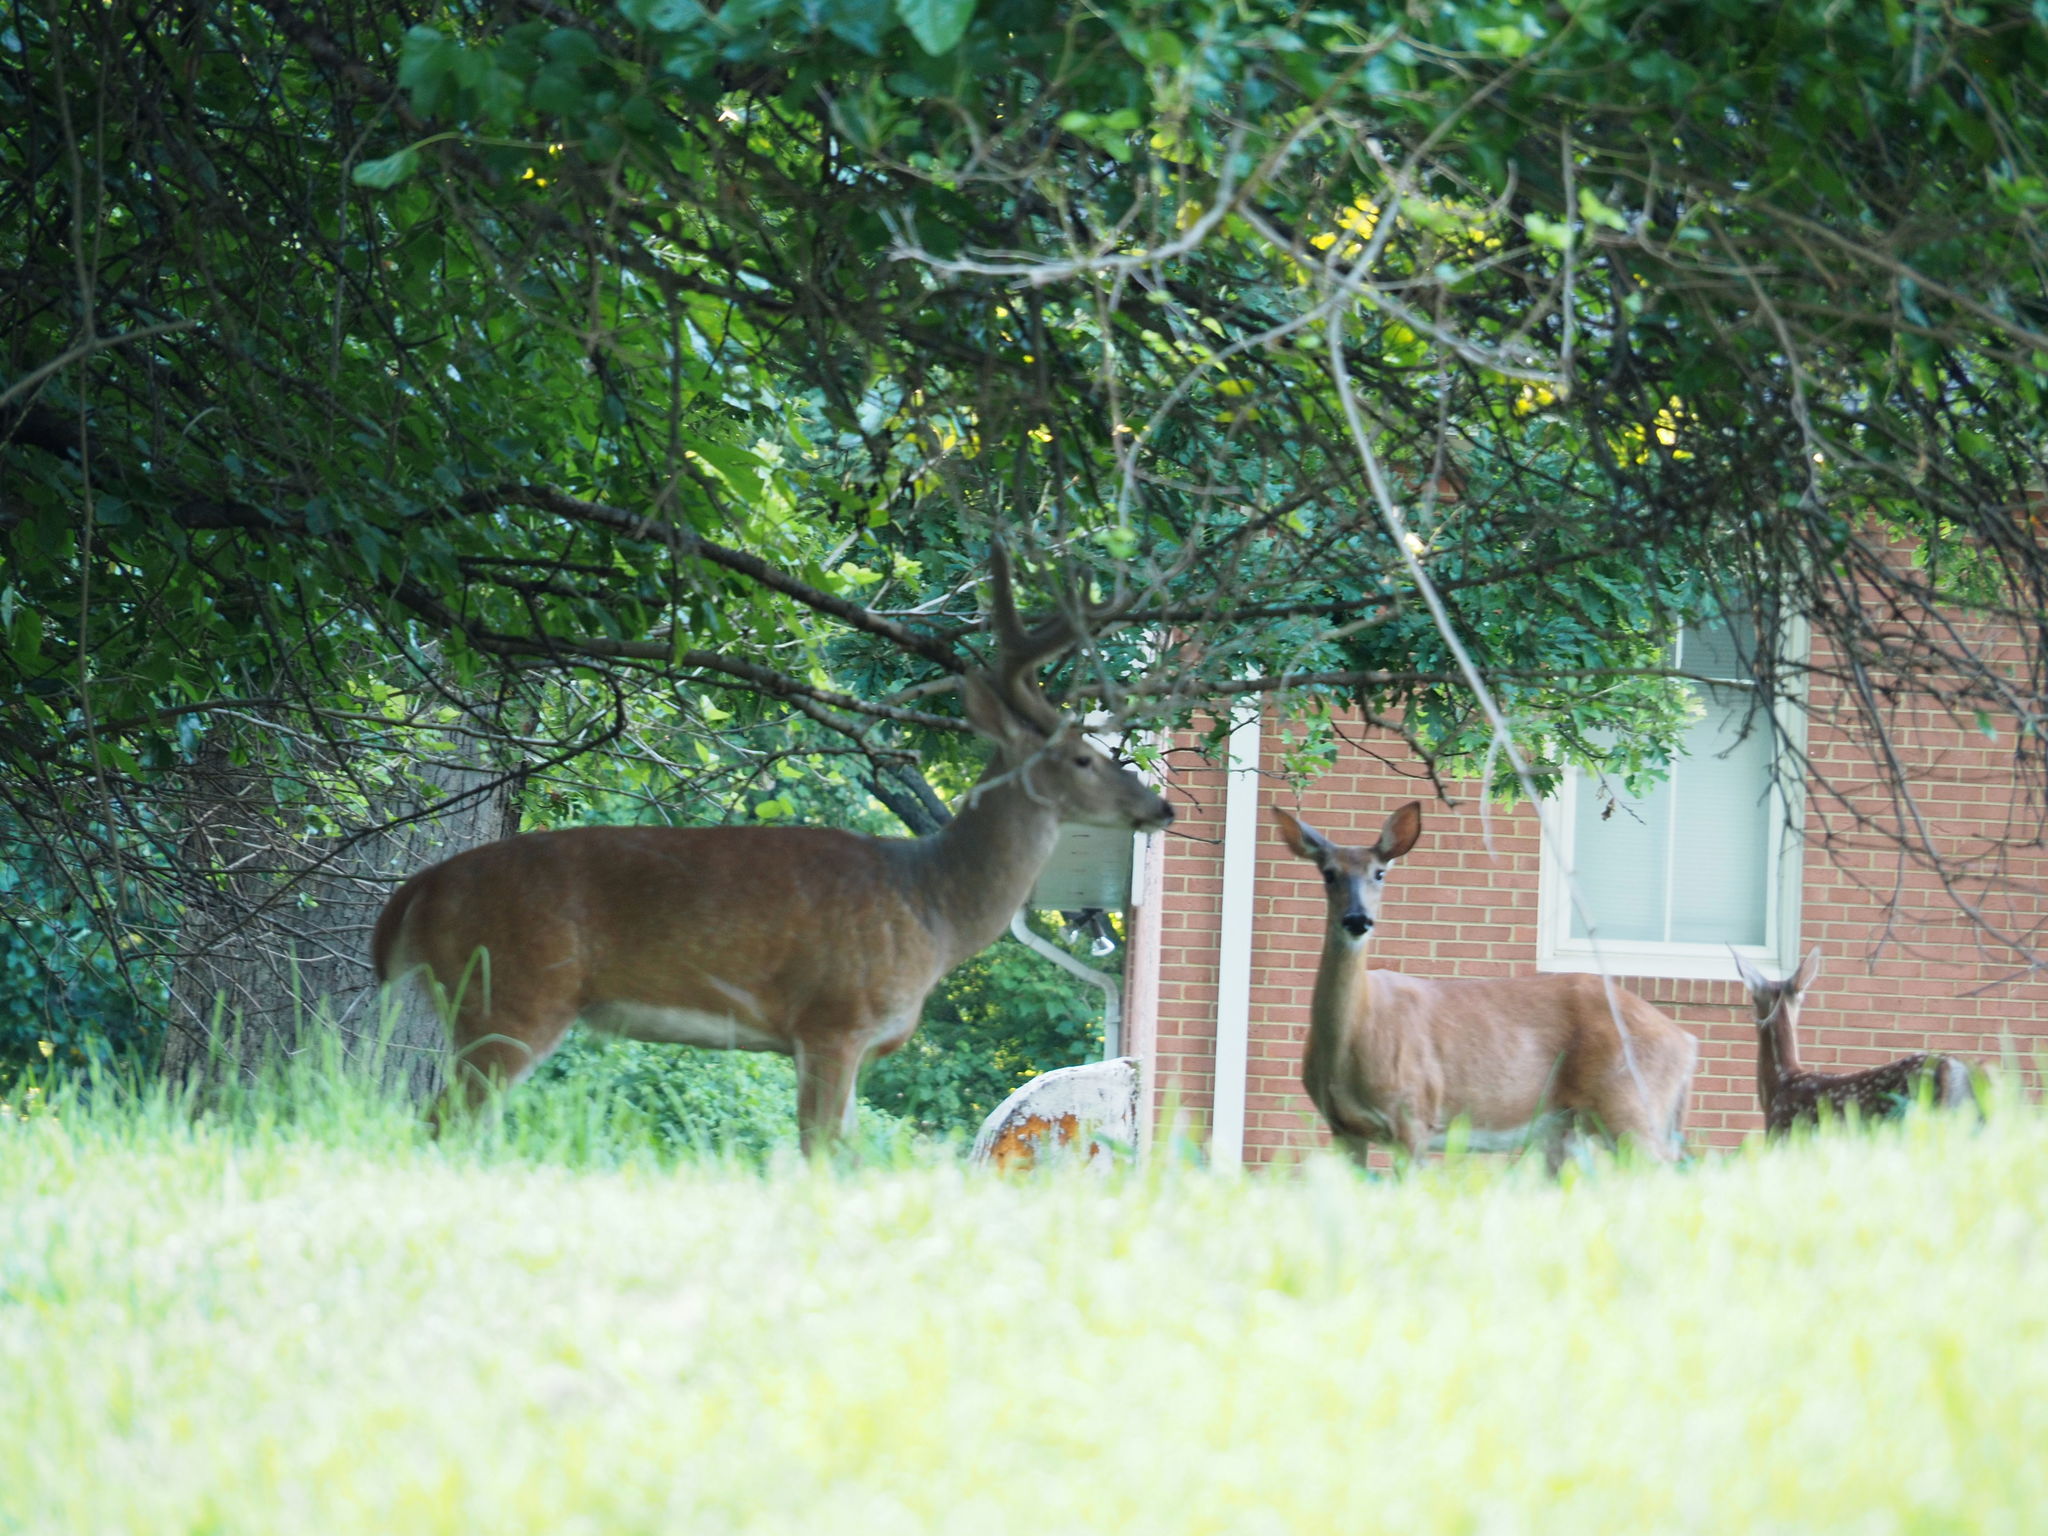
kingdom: Animalia
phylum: Chordata
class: Mammalia
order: Artiodactyla
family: Cervidae
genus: Odocoileus
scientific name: Odocoileus virginianus
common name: White-tailed deer
